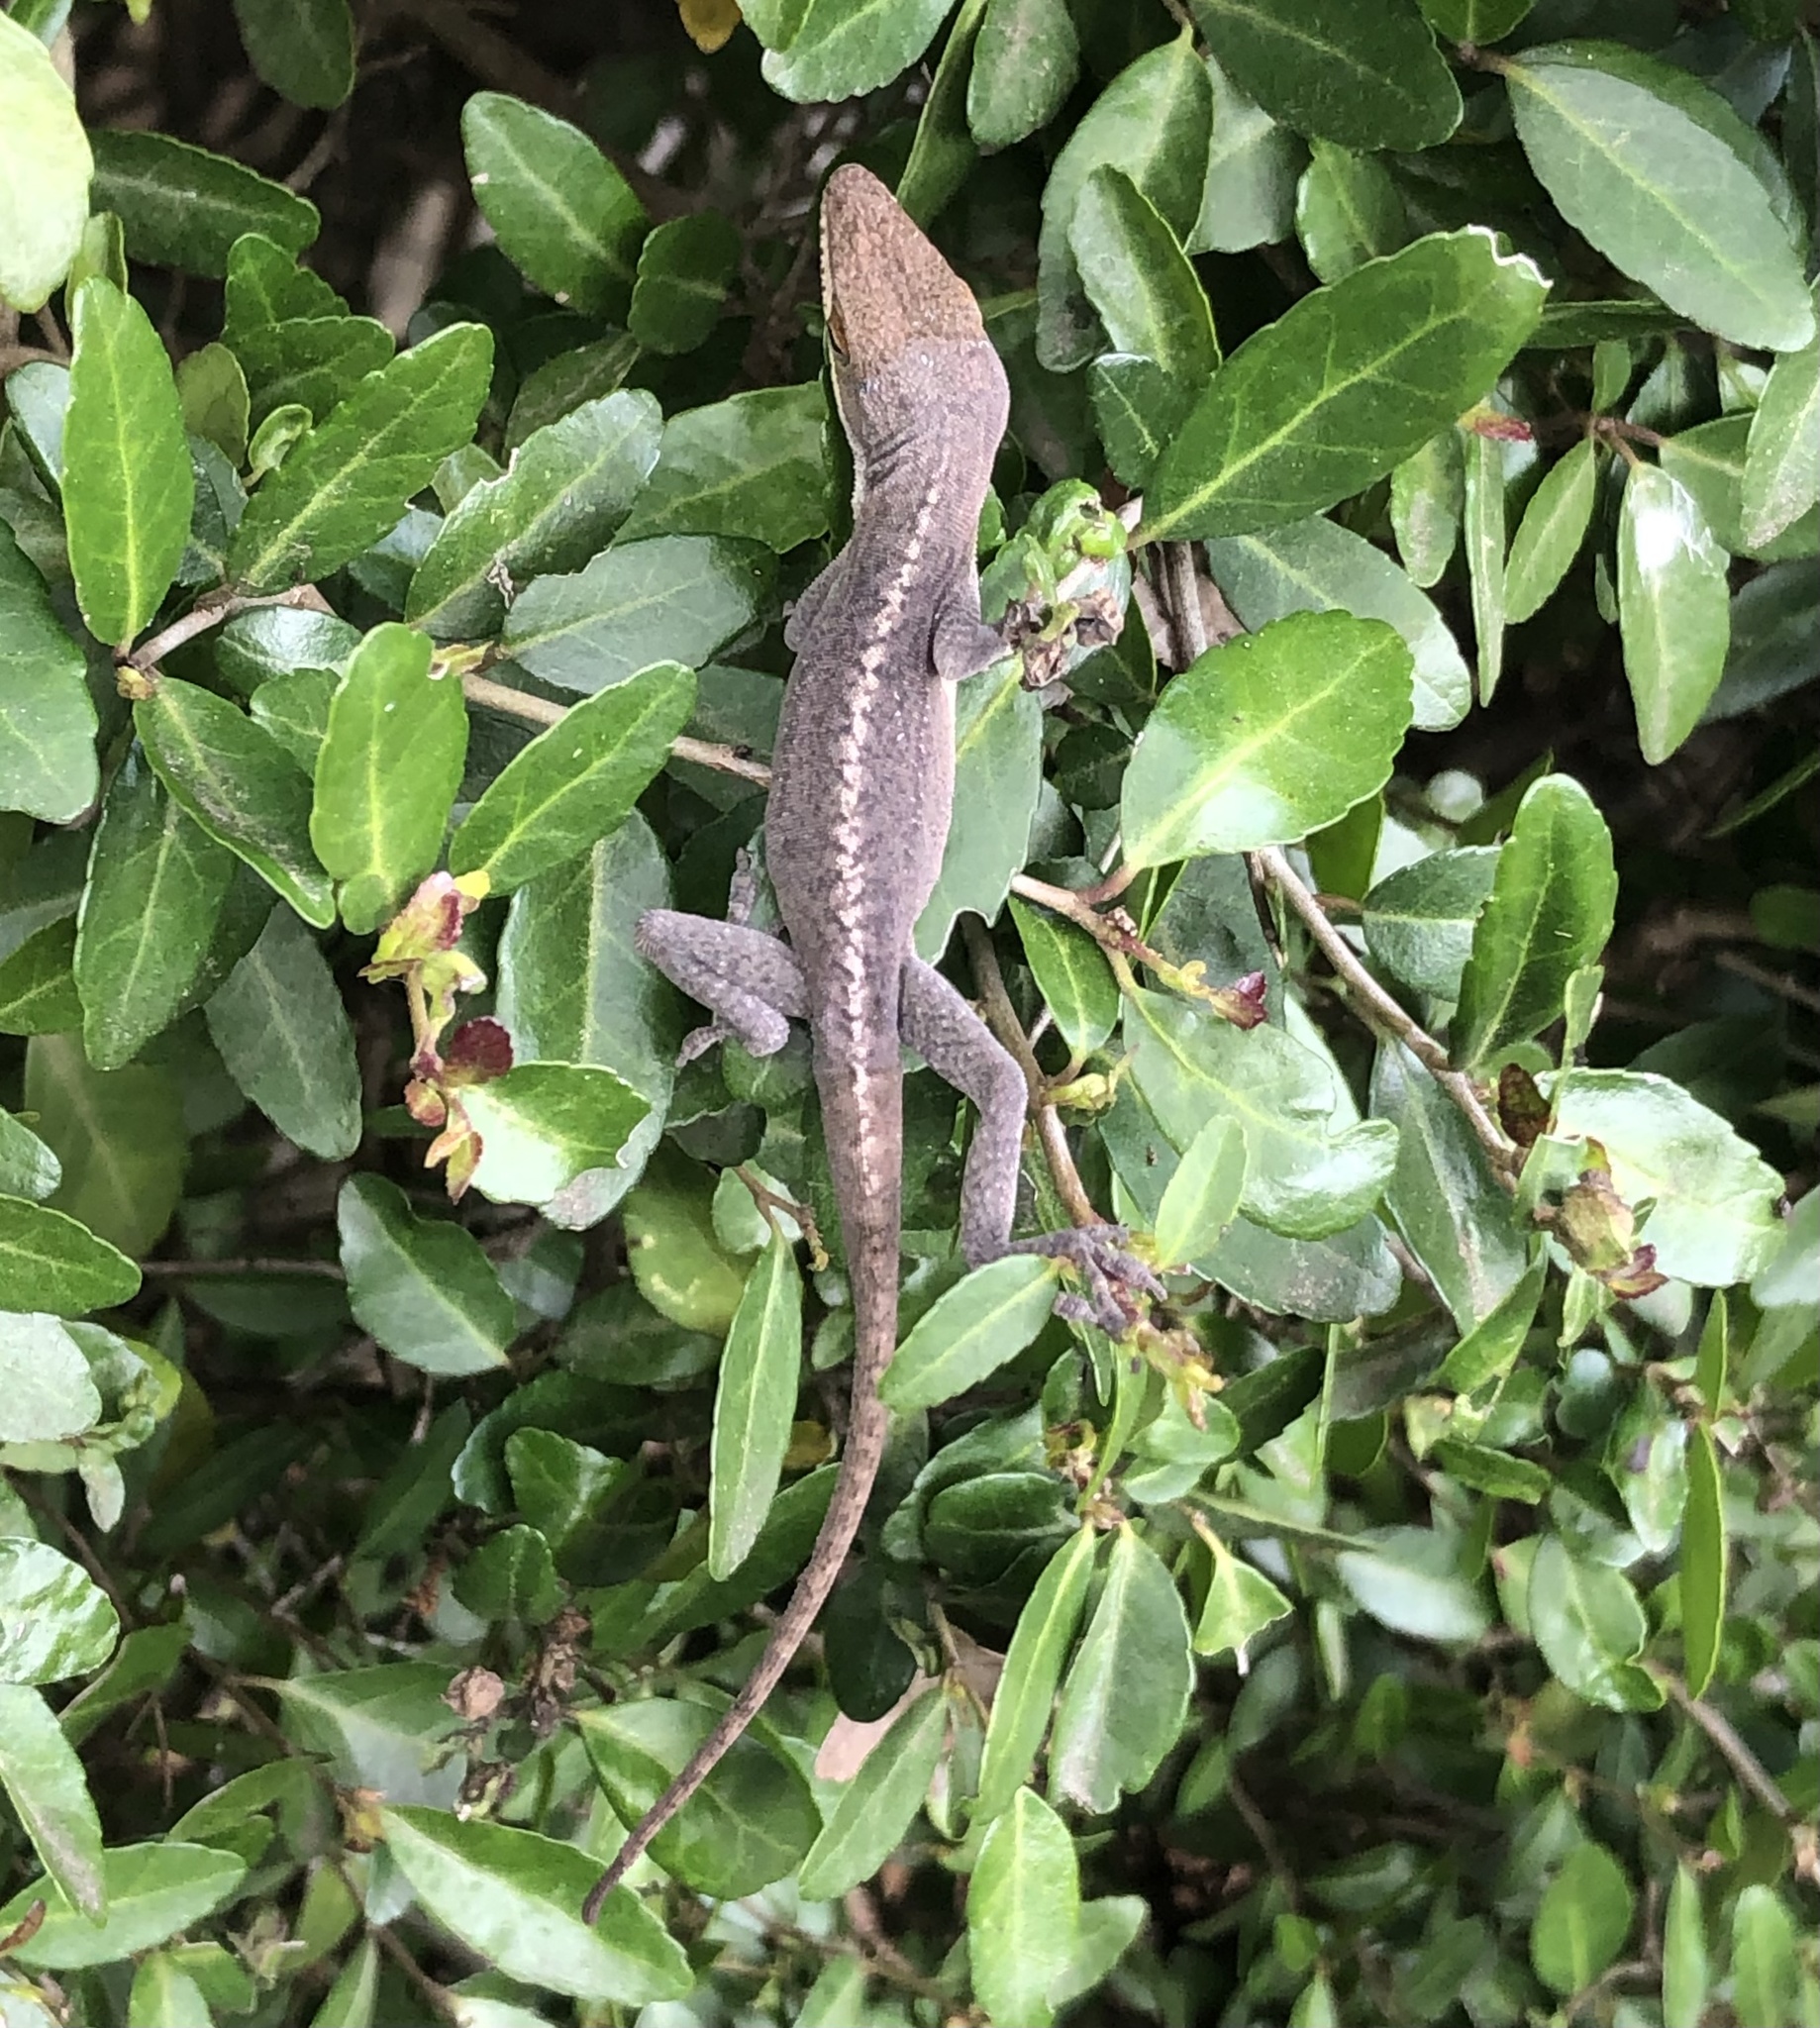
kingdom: Animalia
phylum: Chordata
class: Squamata
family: Dactyloidae
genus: Anolis
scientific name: Anolis carolinensis
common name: Green anole
